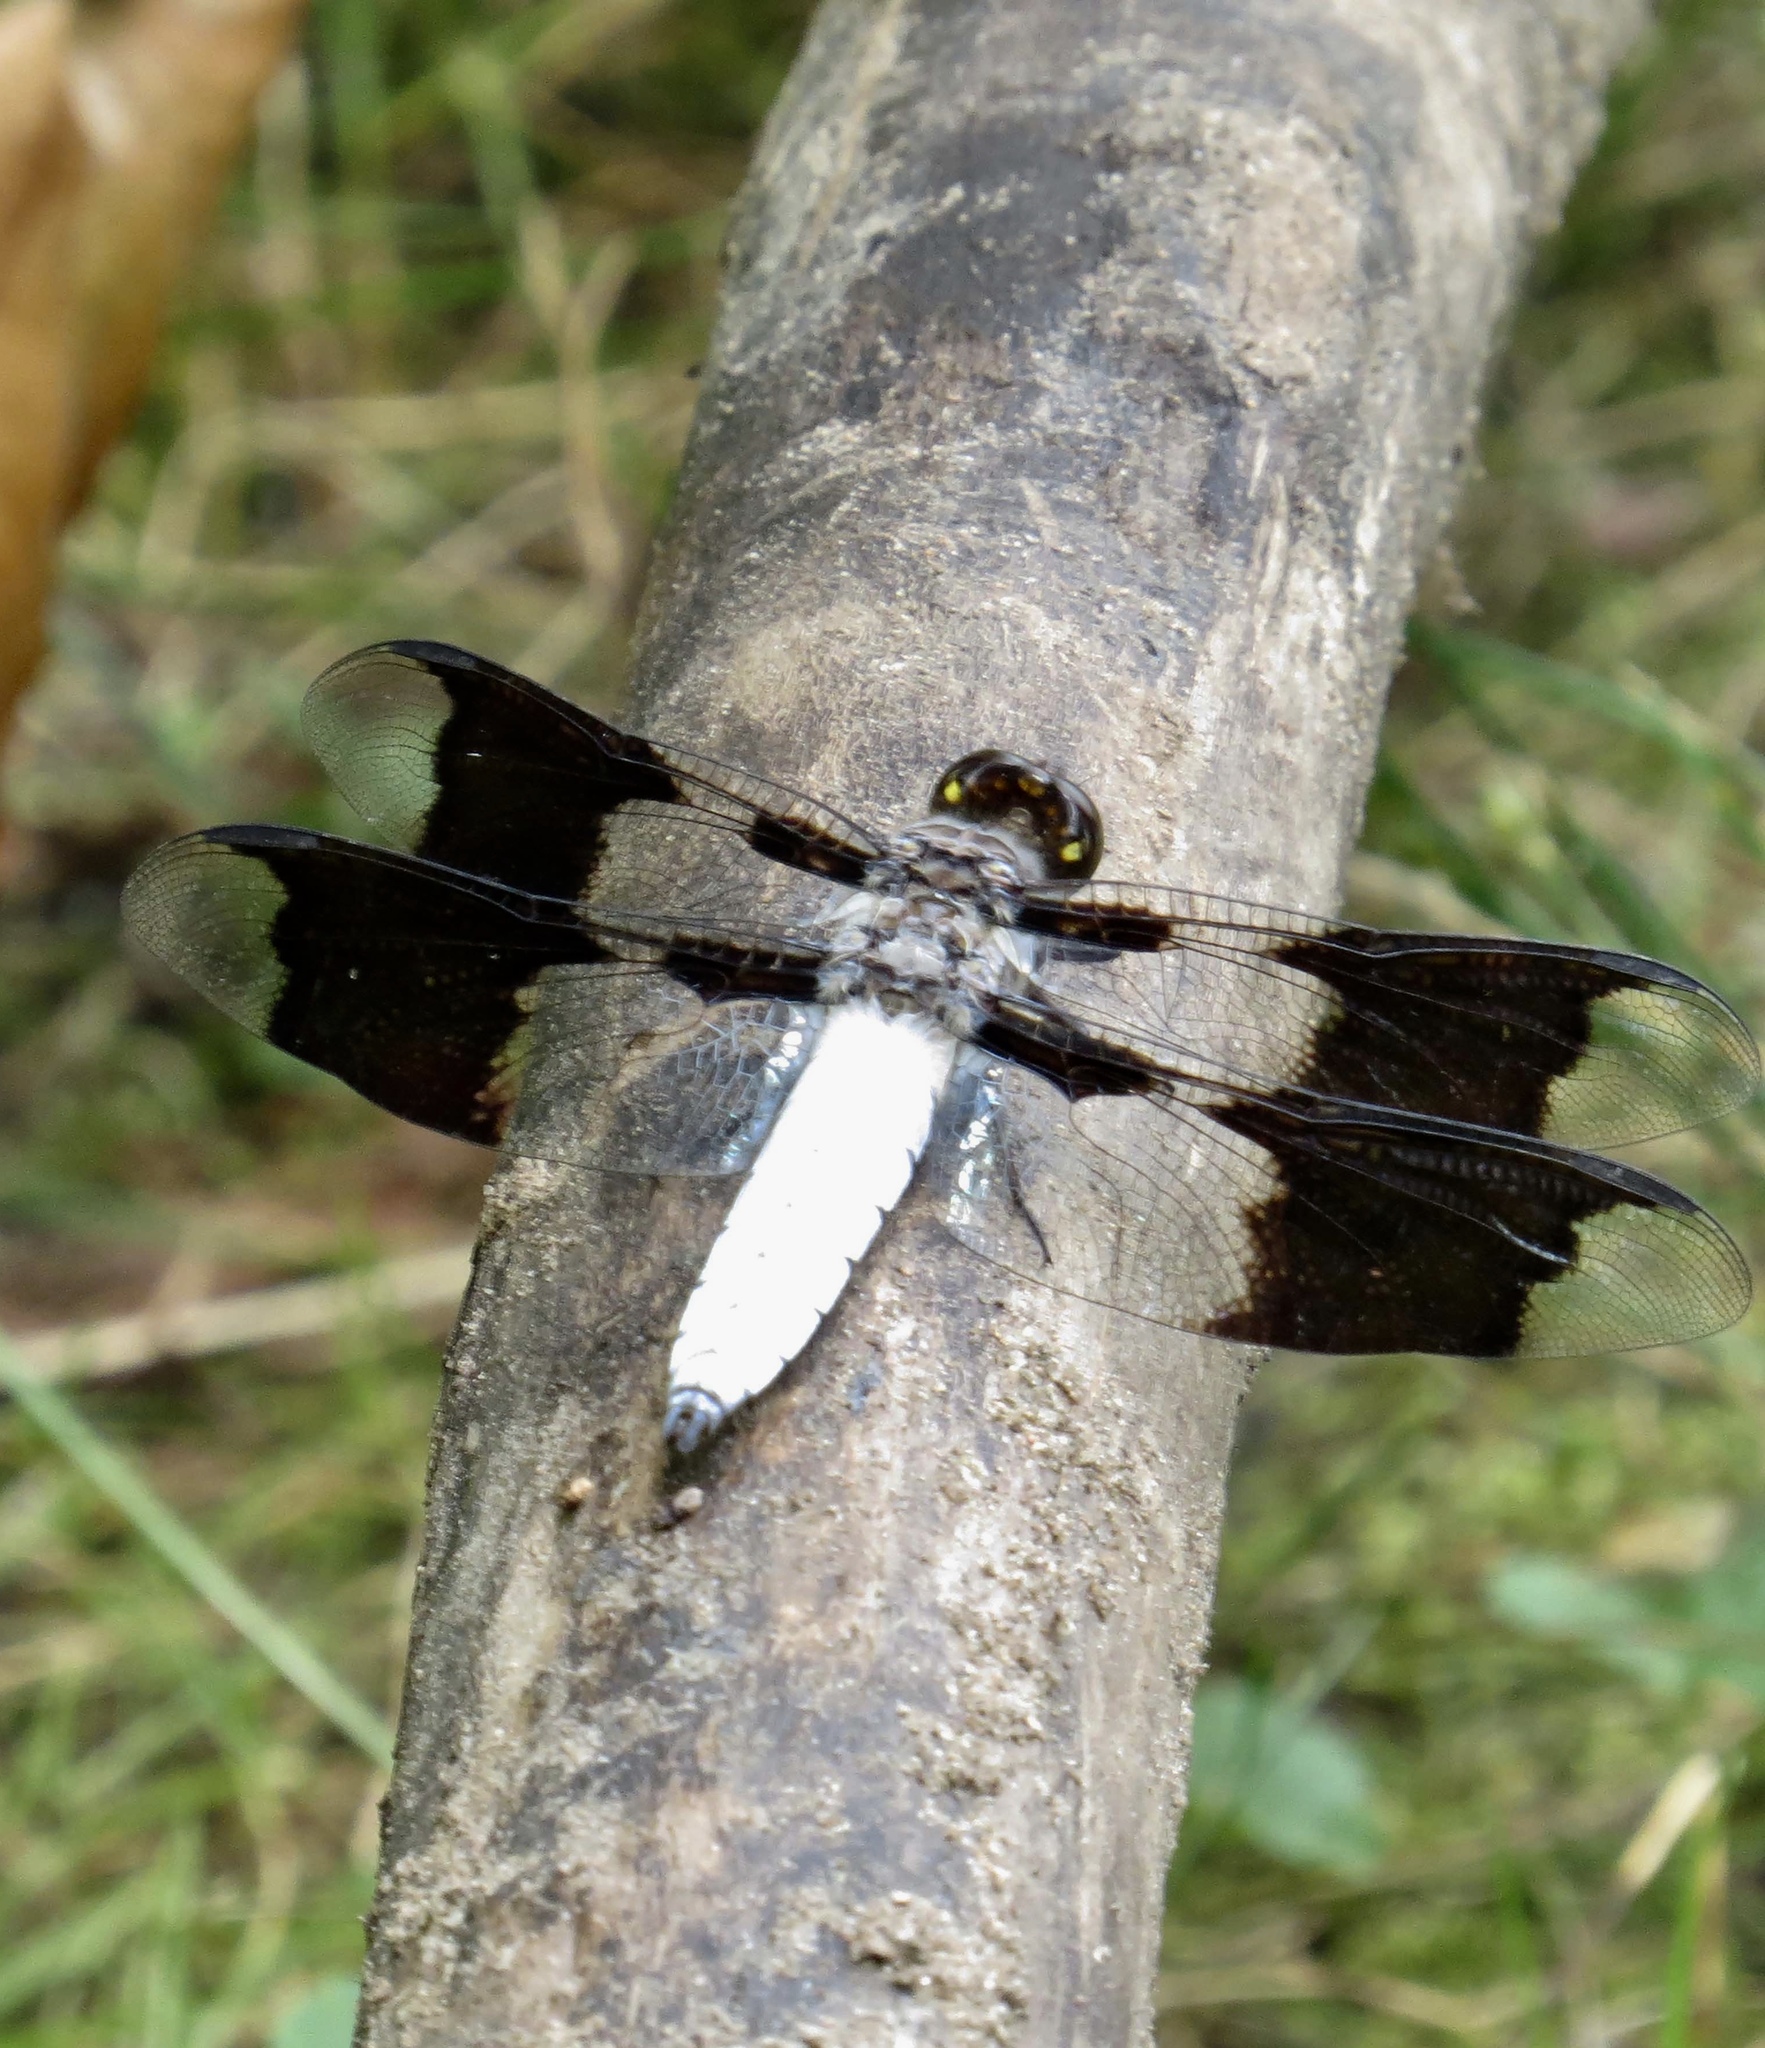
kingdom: Animalia
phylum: Arthropoda
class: Insecta
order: Odonata
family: Libellulidae
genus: Plathemis
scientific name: Plathemis lydia
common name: Common whitetail
